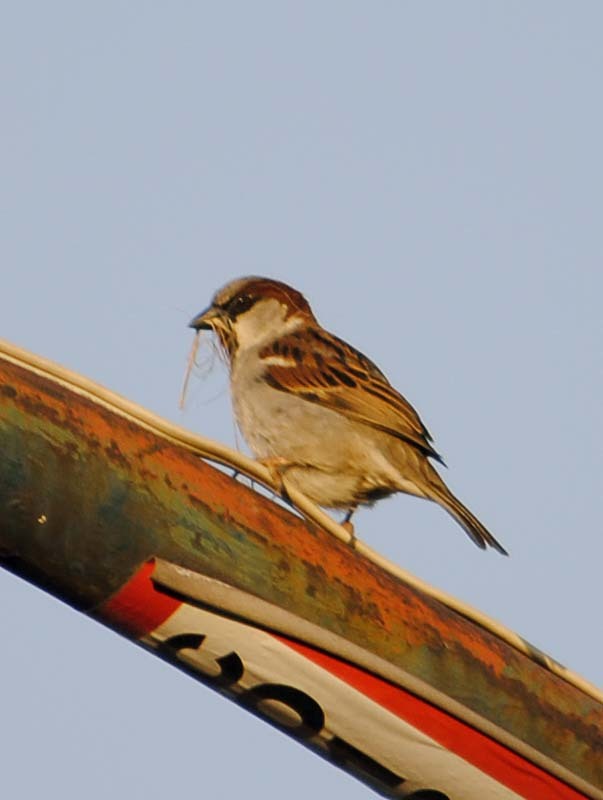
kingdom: Animalia
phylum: Chordata
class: Aves
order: Passeriformes
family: Passeridae
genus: Passer
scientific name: Passer domesticus
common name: House sparrow
